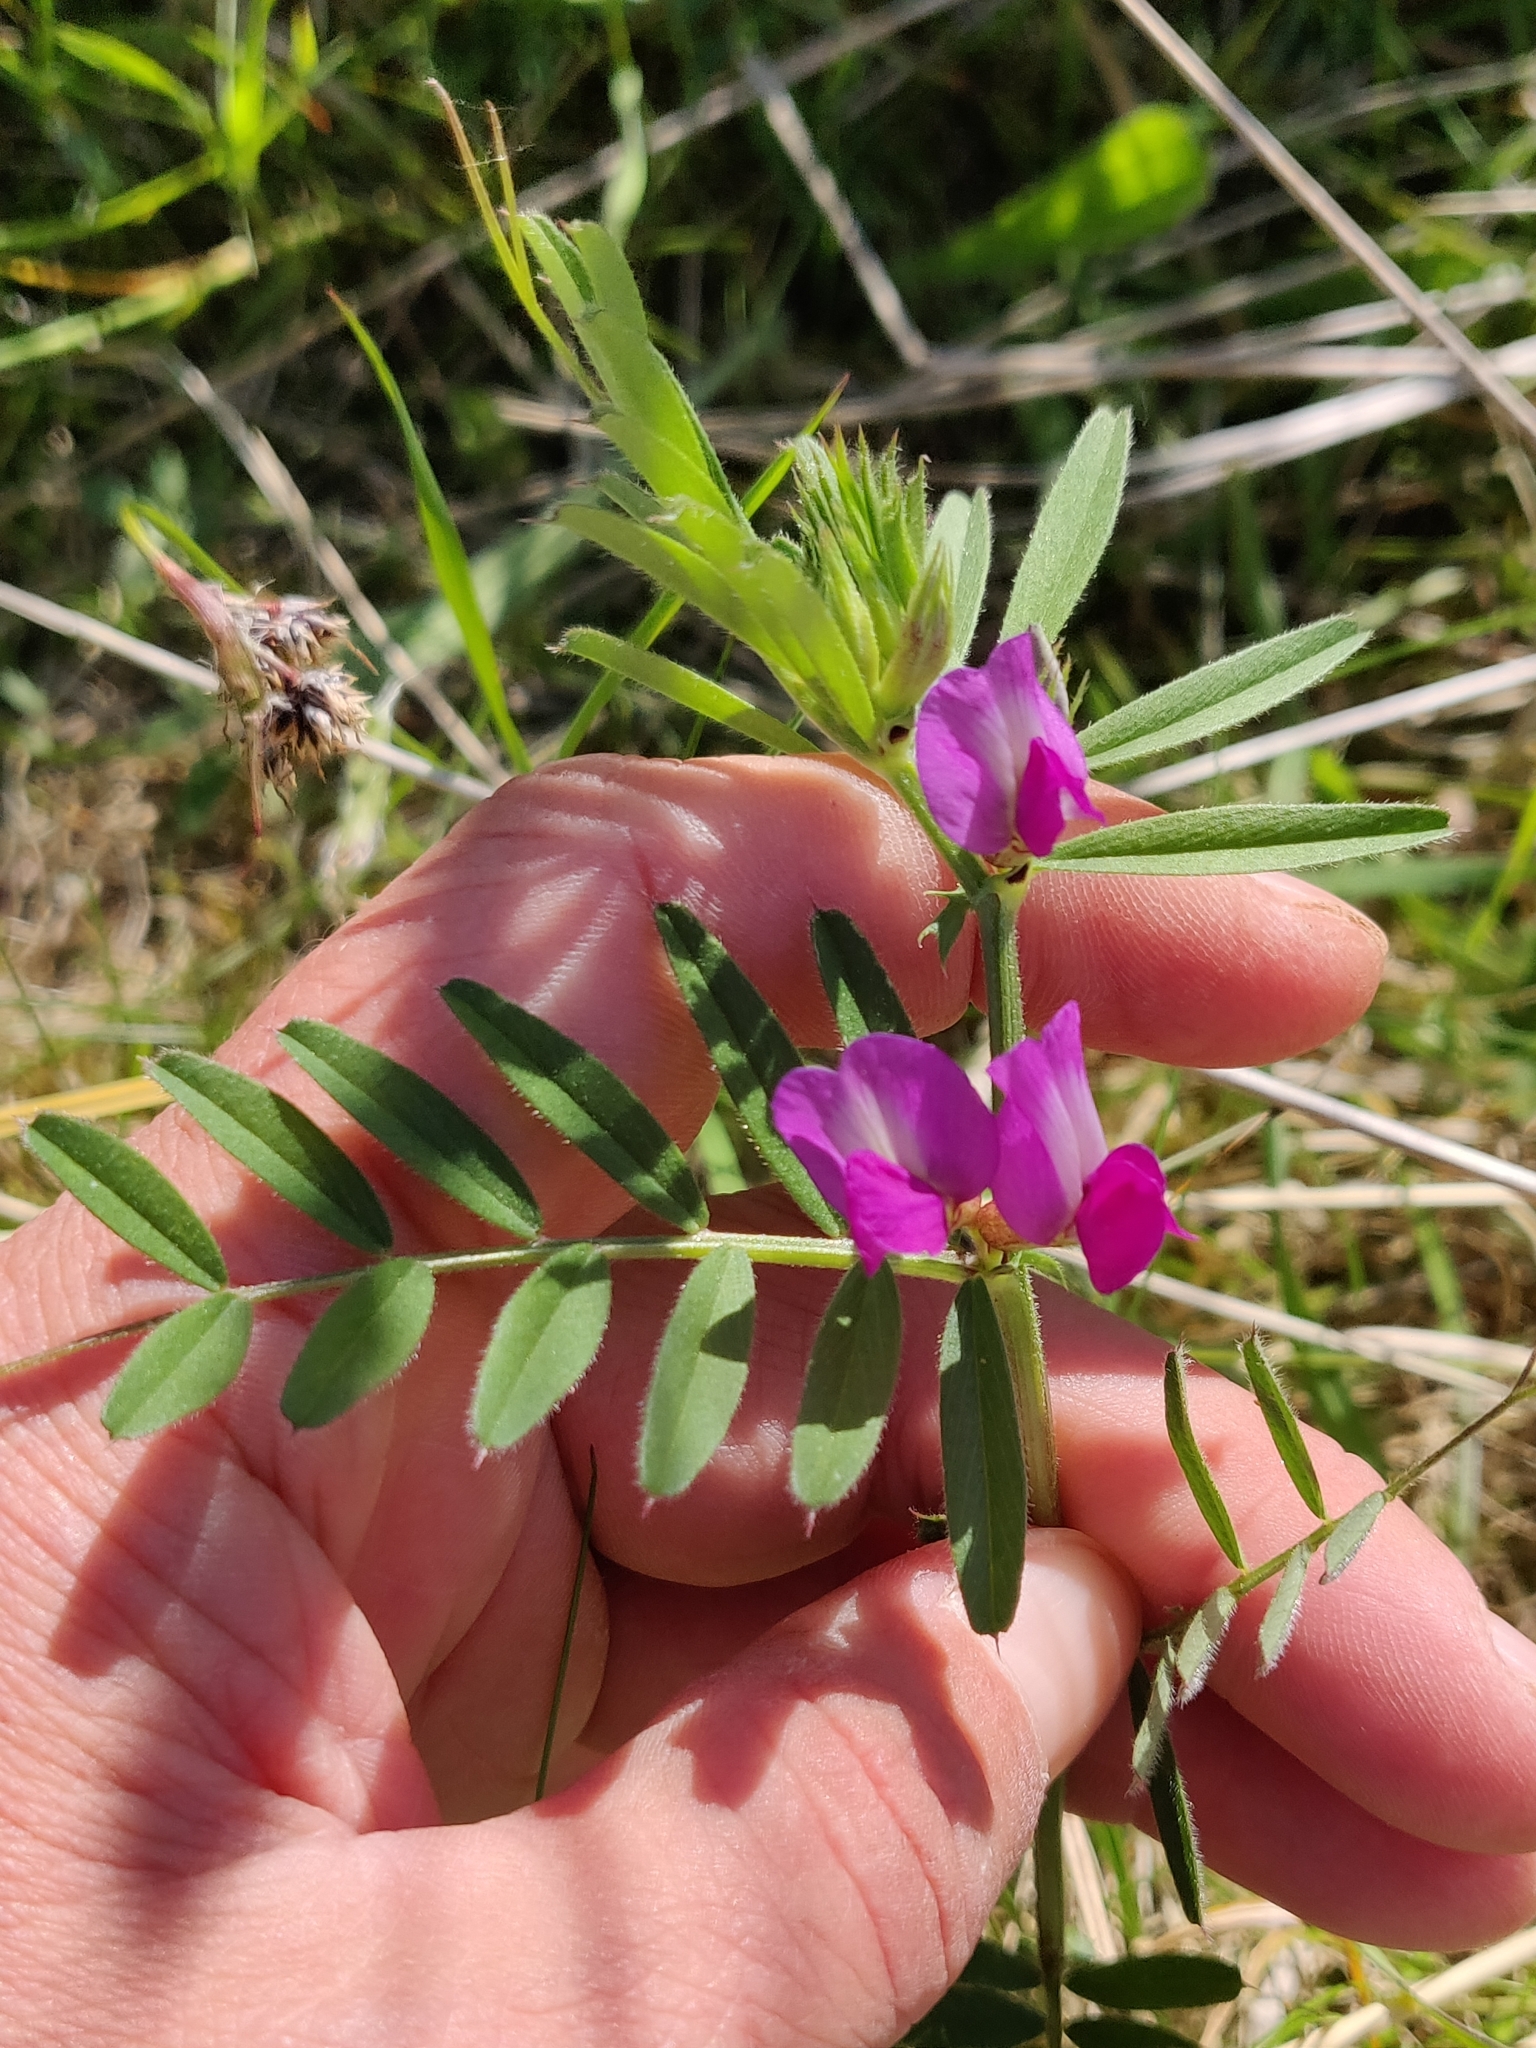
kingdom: Plantae
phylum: Tracheophyta
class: Magnoliopsida
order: Fabales
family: Fabaceae
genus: Vicia
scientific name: Vicia sativa
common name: Garden vetch
